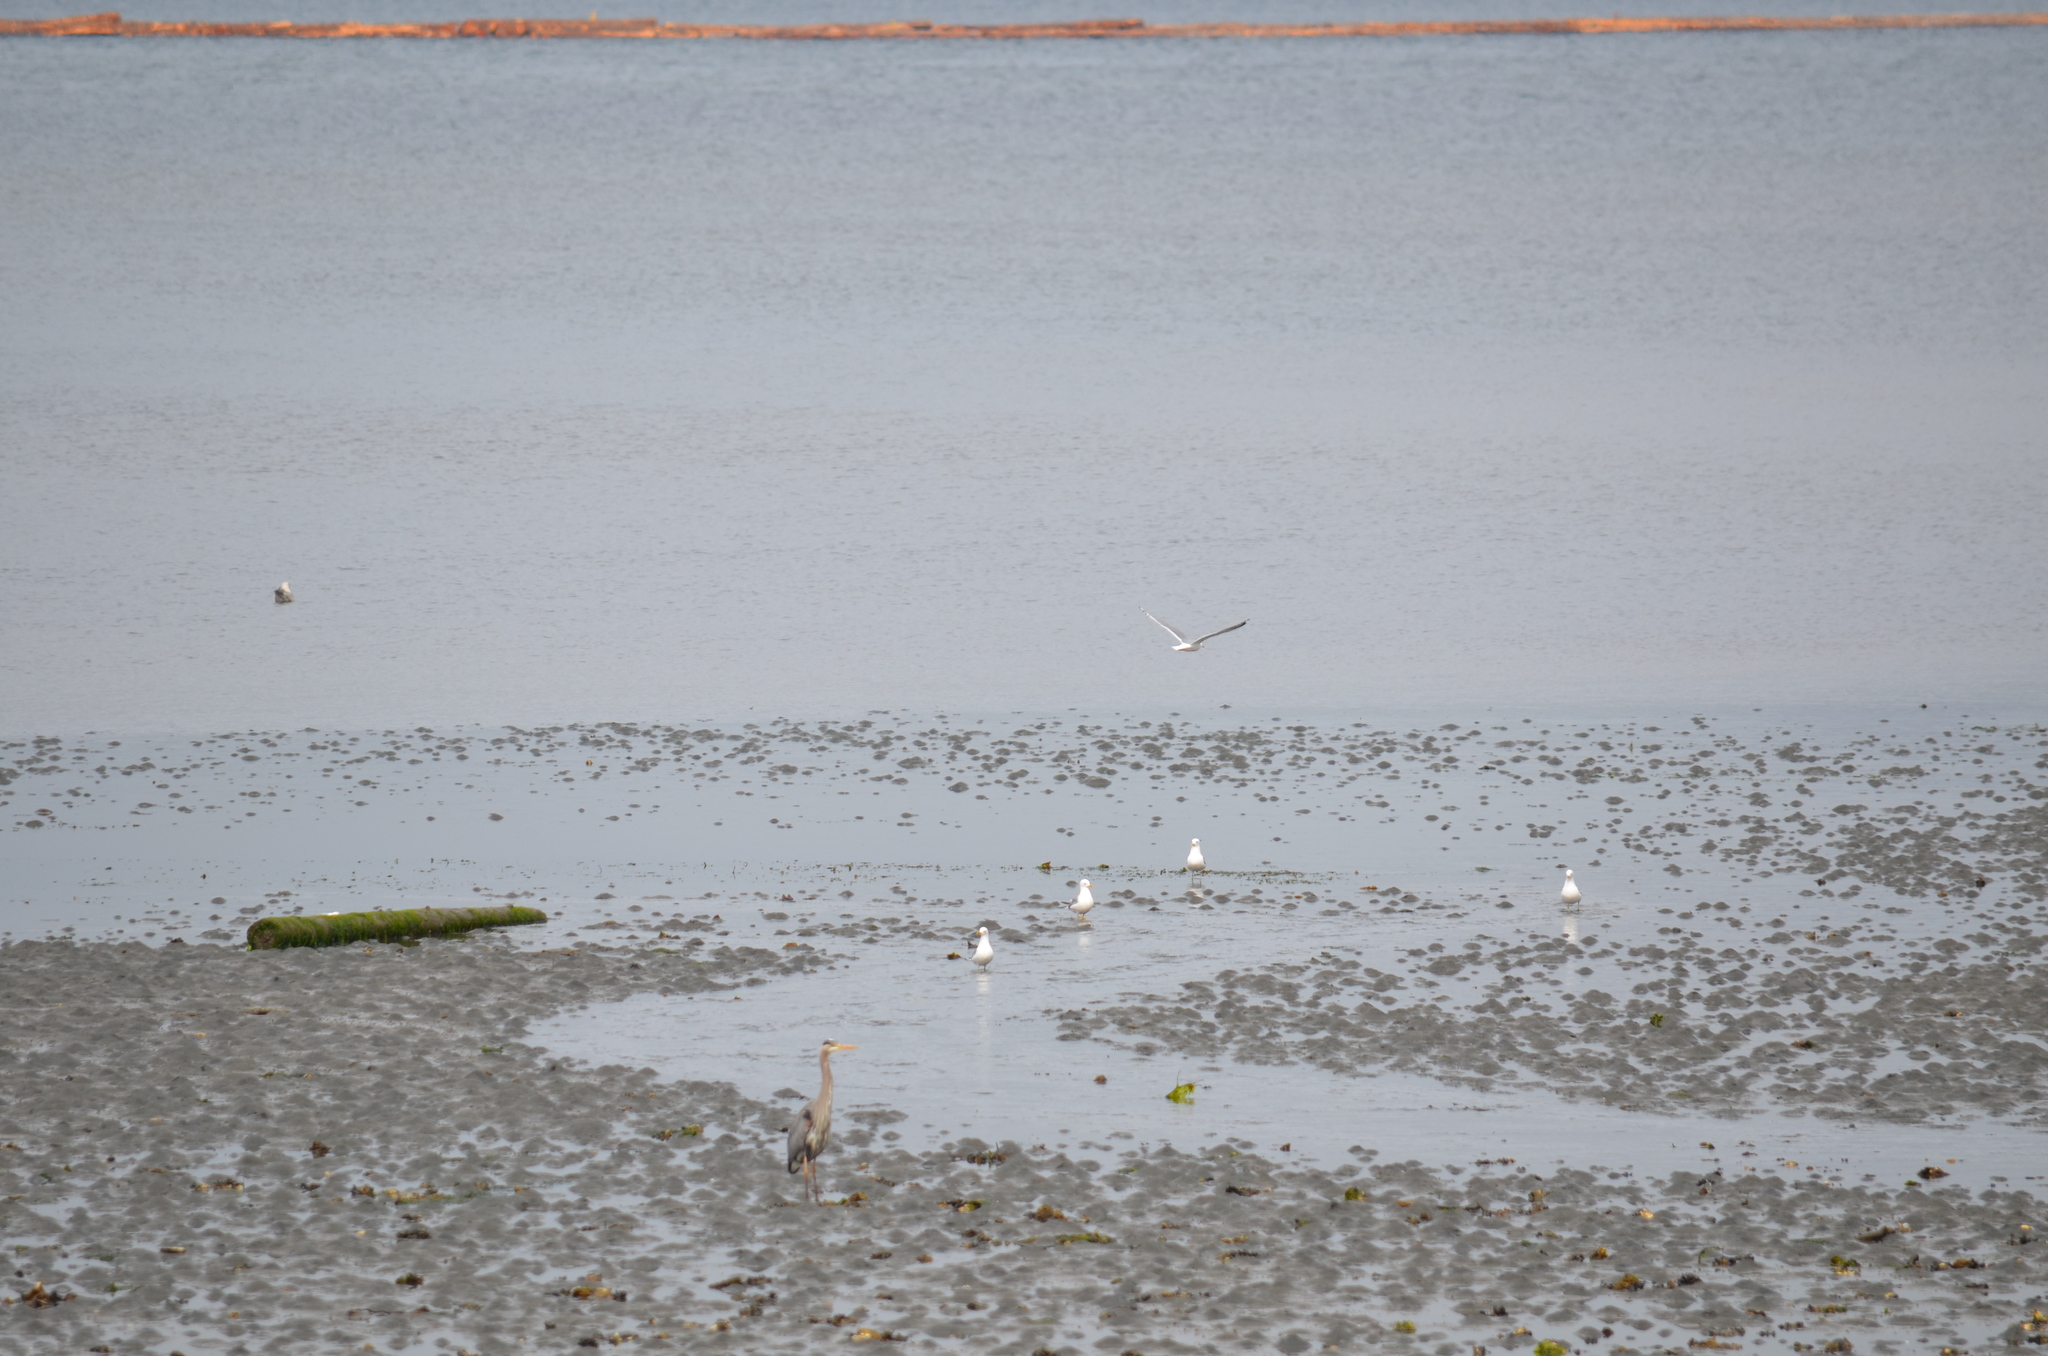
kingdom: Animalia
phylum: Chordata
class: Aves
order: Charadriiformes
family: Laridae
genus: Larus
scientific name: Larus brachyrhynchus
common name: Short-billed gull
